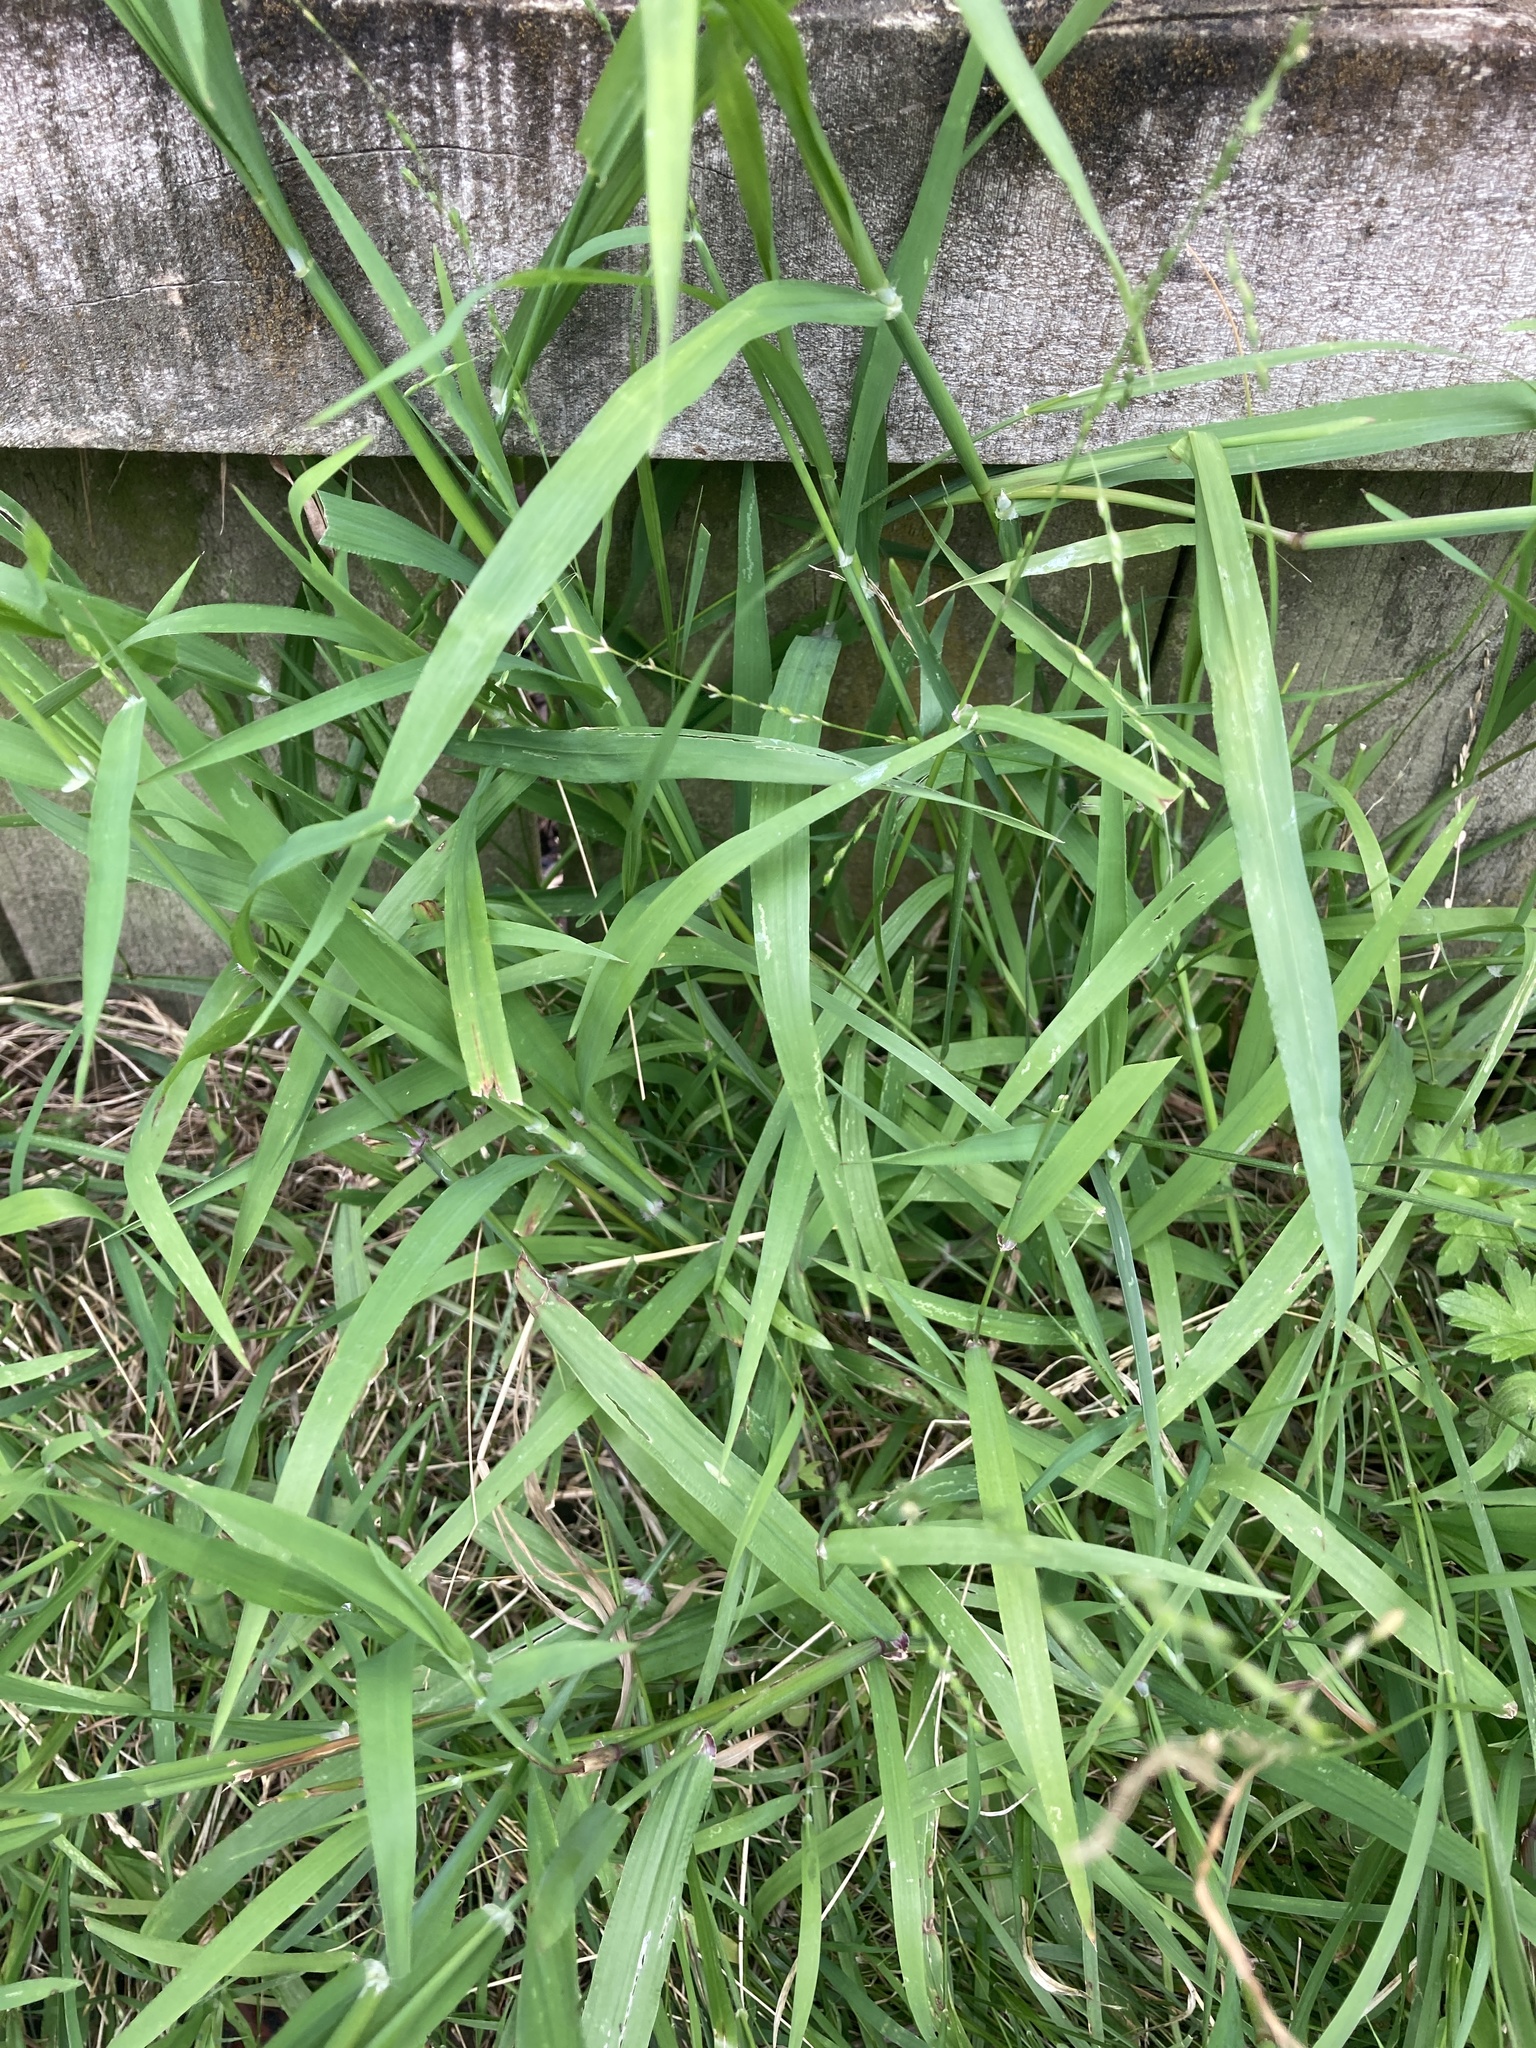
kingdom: Plantae
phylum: Tracheophyta
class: Liliopsida
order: Poales
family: Poaceae
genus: Ehrharta
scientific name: Ehrharta erecta
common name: Panic veldtgrass
